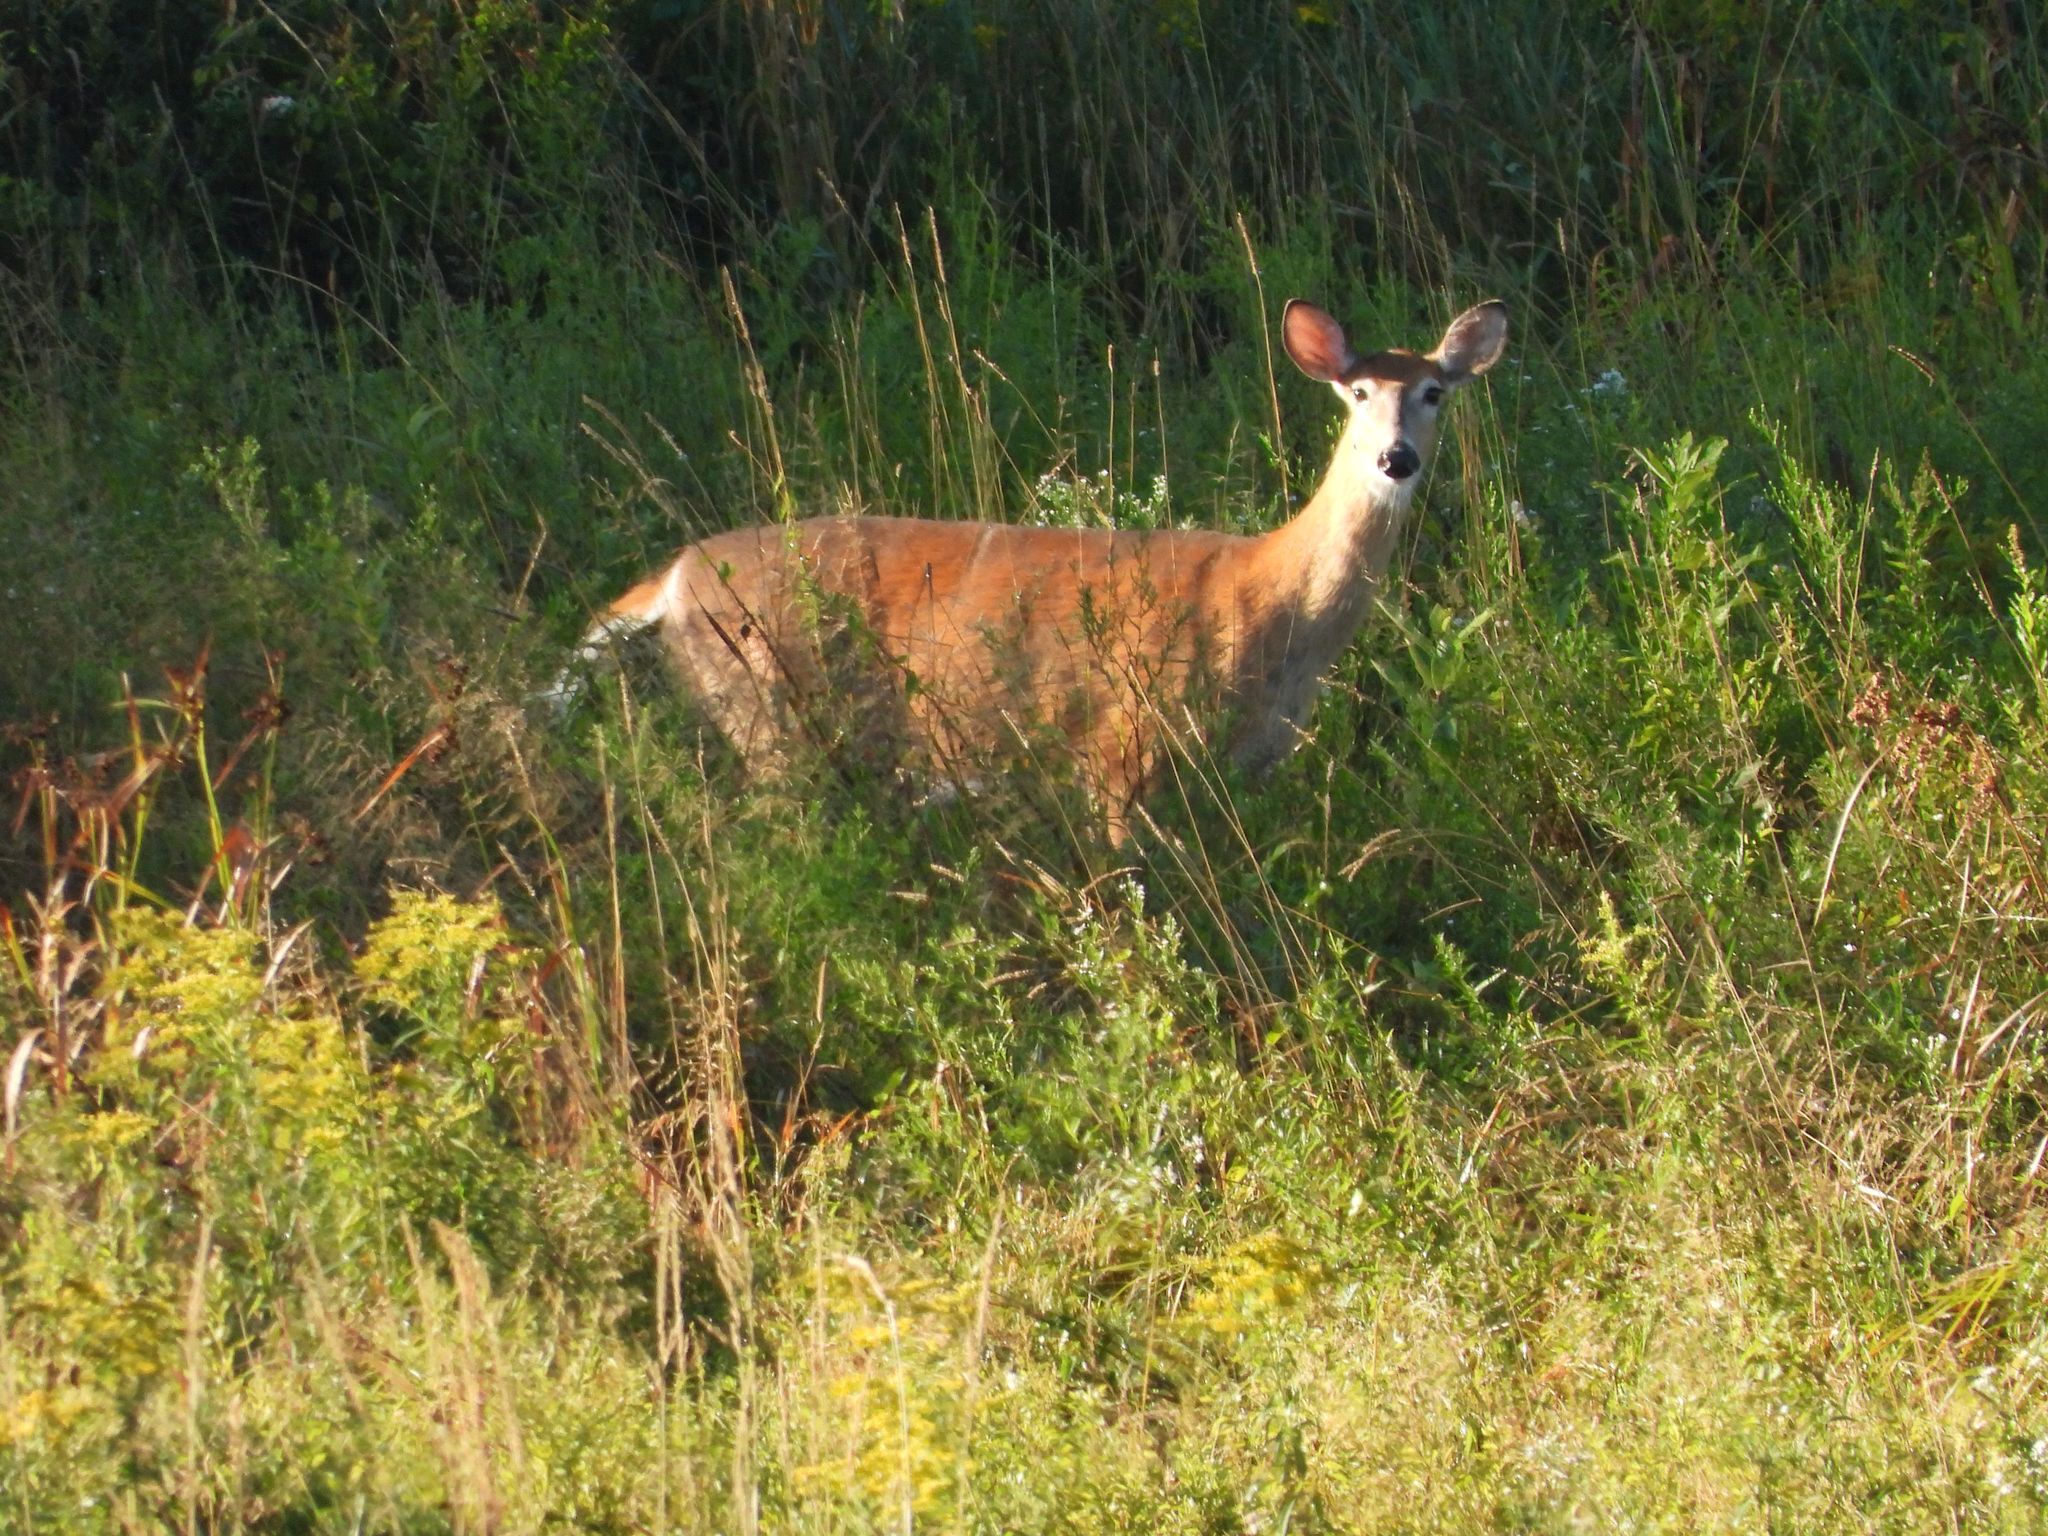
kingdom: Animalia
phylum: Chordata
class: Mammalia
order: Artiodactyla
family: Cervidae
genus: Odocoileus
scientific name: Odocoileus virginianus
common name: White-tailed deer
